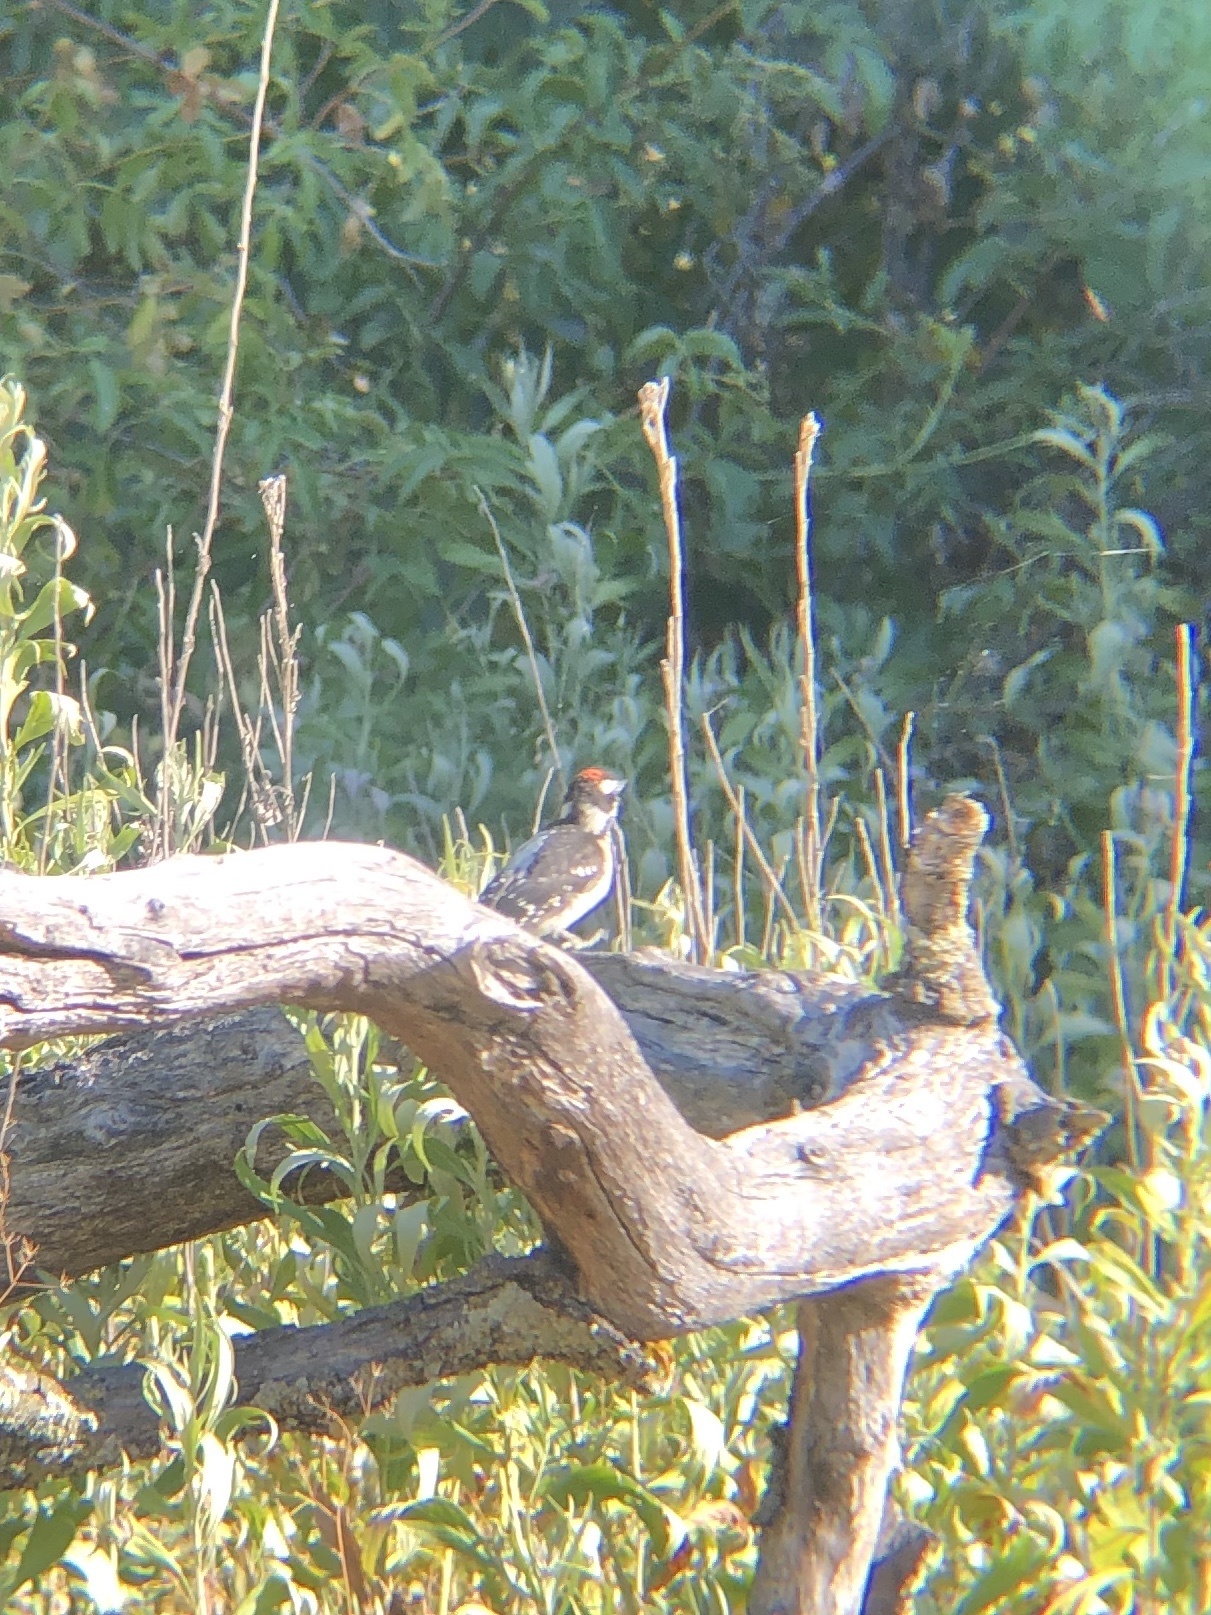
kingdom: Animalia
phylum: Chordata
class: Aves
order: Piciformes
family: Picidae
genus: Dryobates
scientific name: Dryobates pubescens
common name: Downy woodpecker
